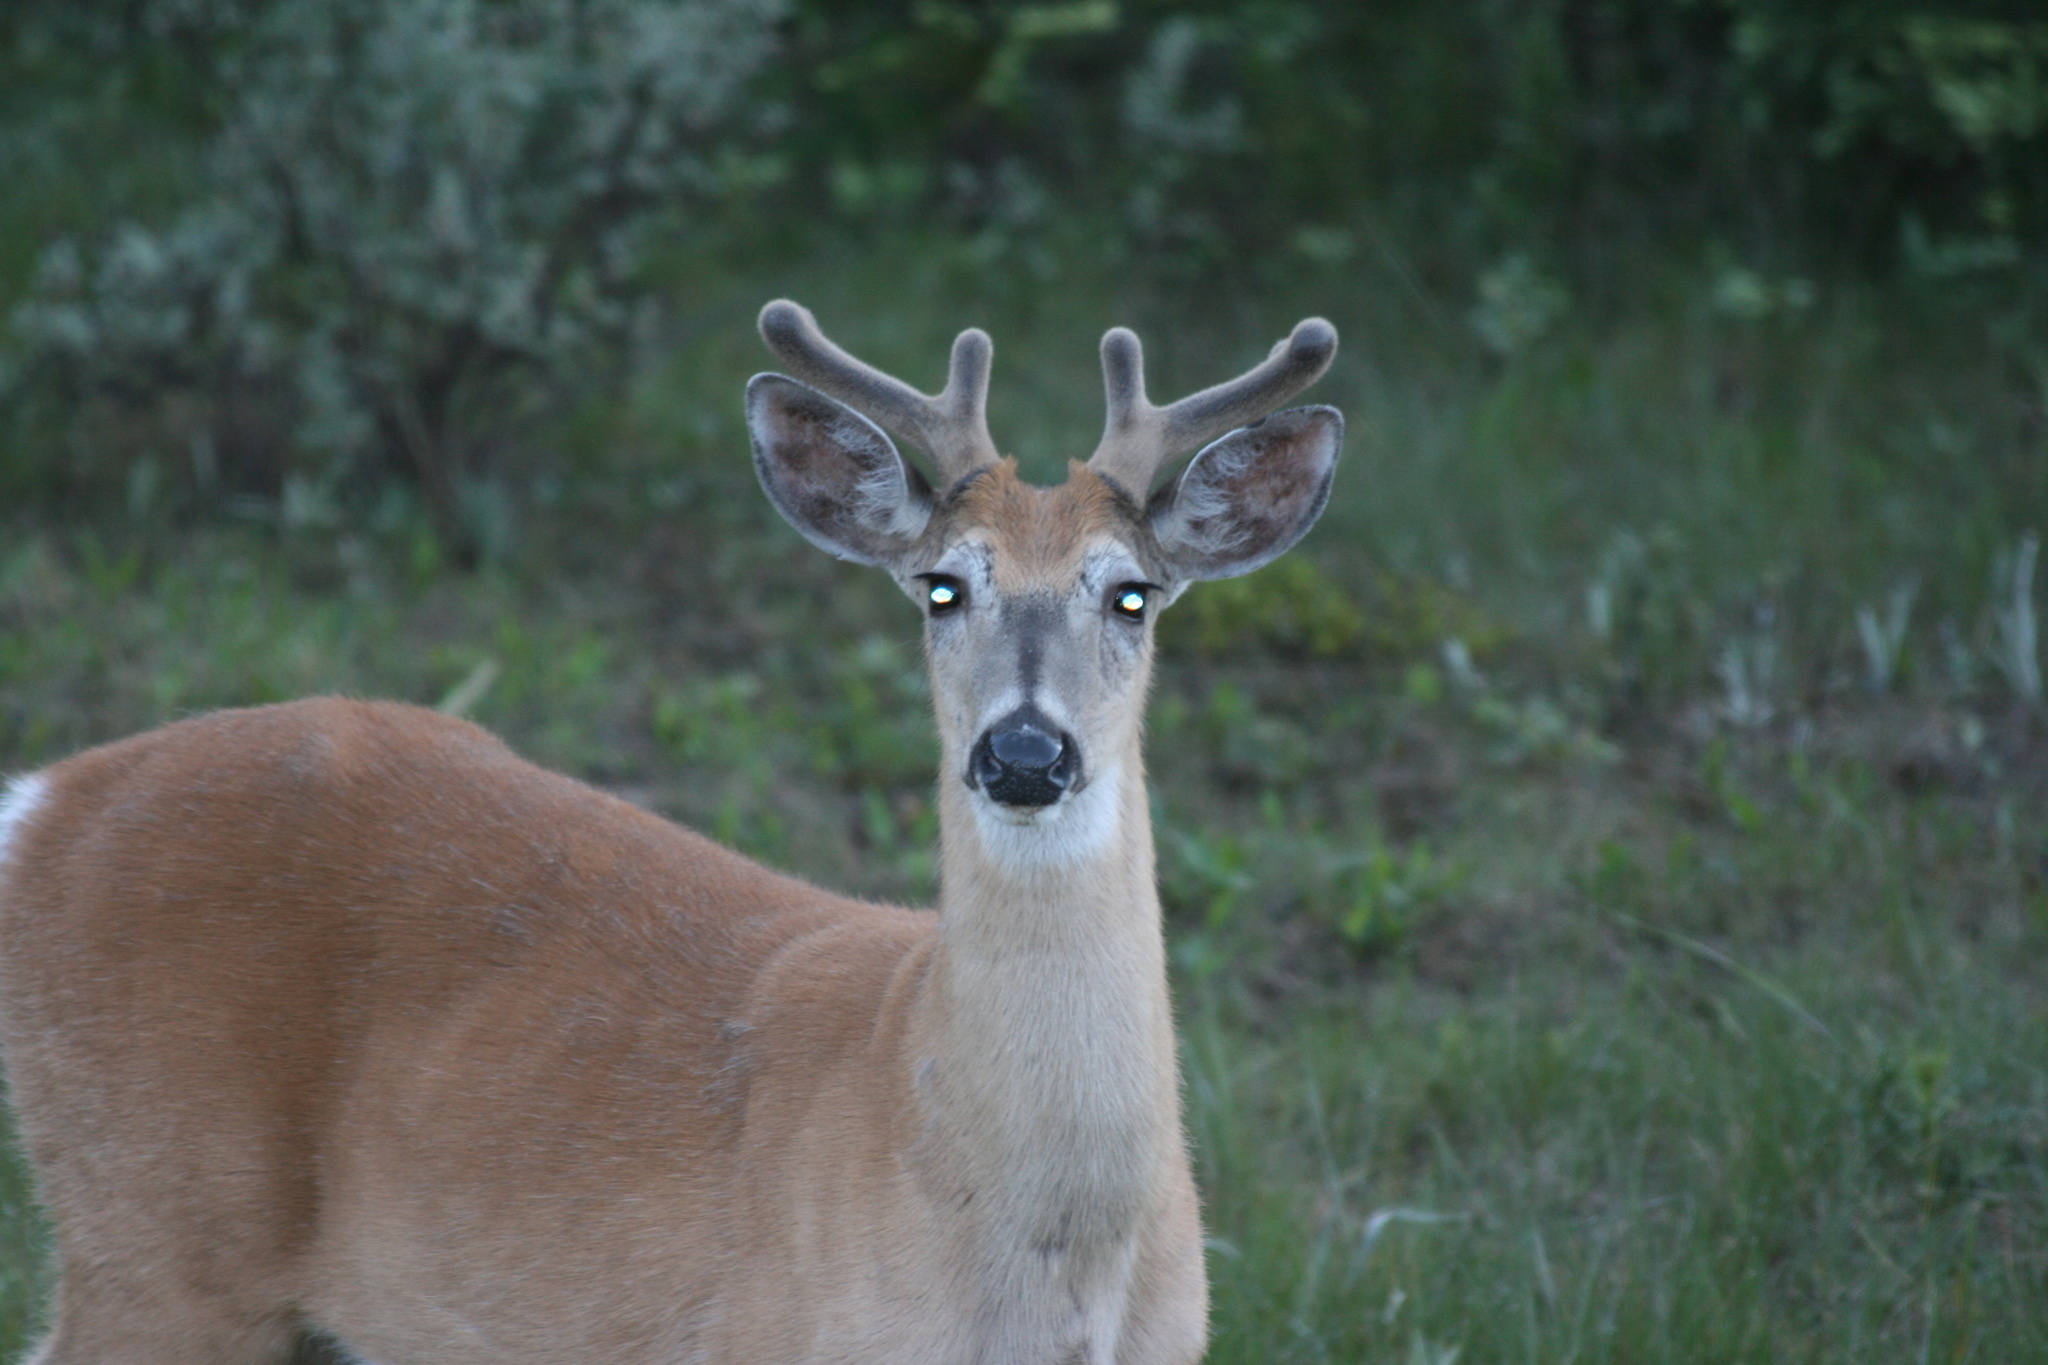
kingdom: Animalia
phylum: Chordata
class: Mammalia
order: Artiodactyla
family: Cervidae
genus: Odocoileus
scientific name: Odocoileus virginianus
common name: White-tailed deer
